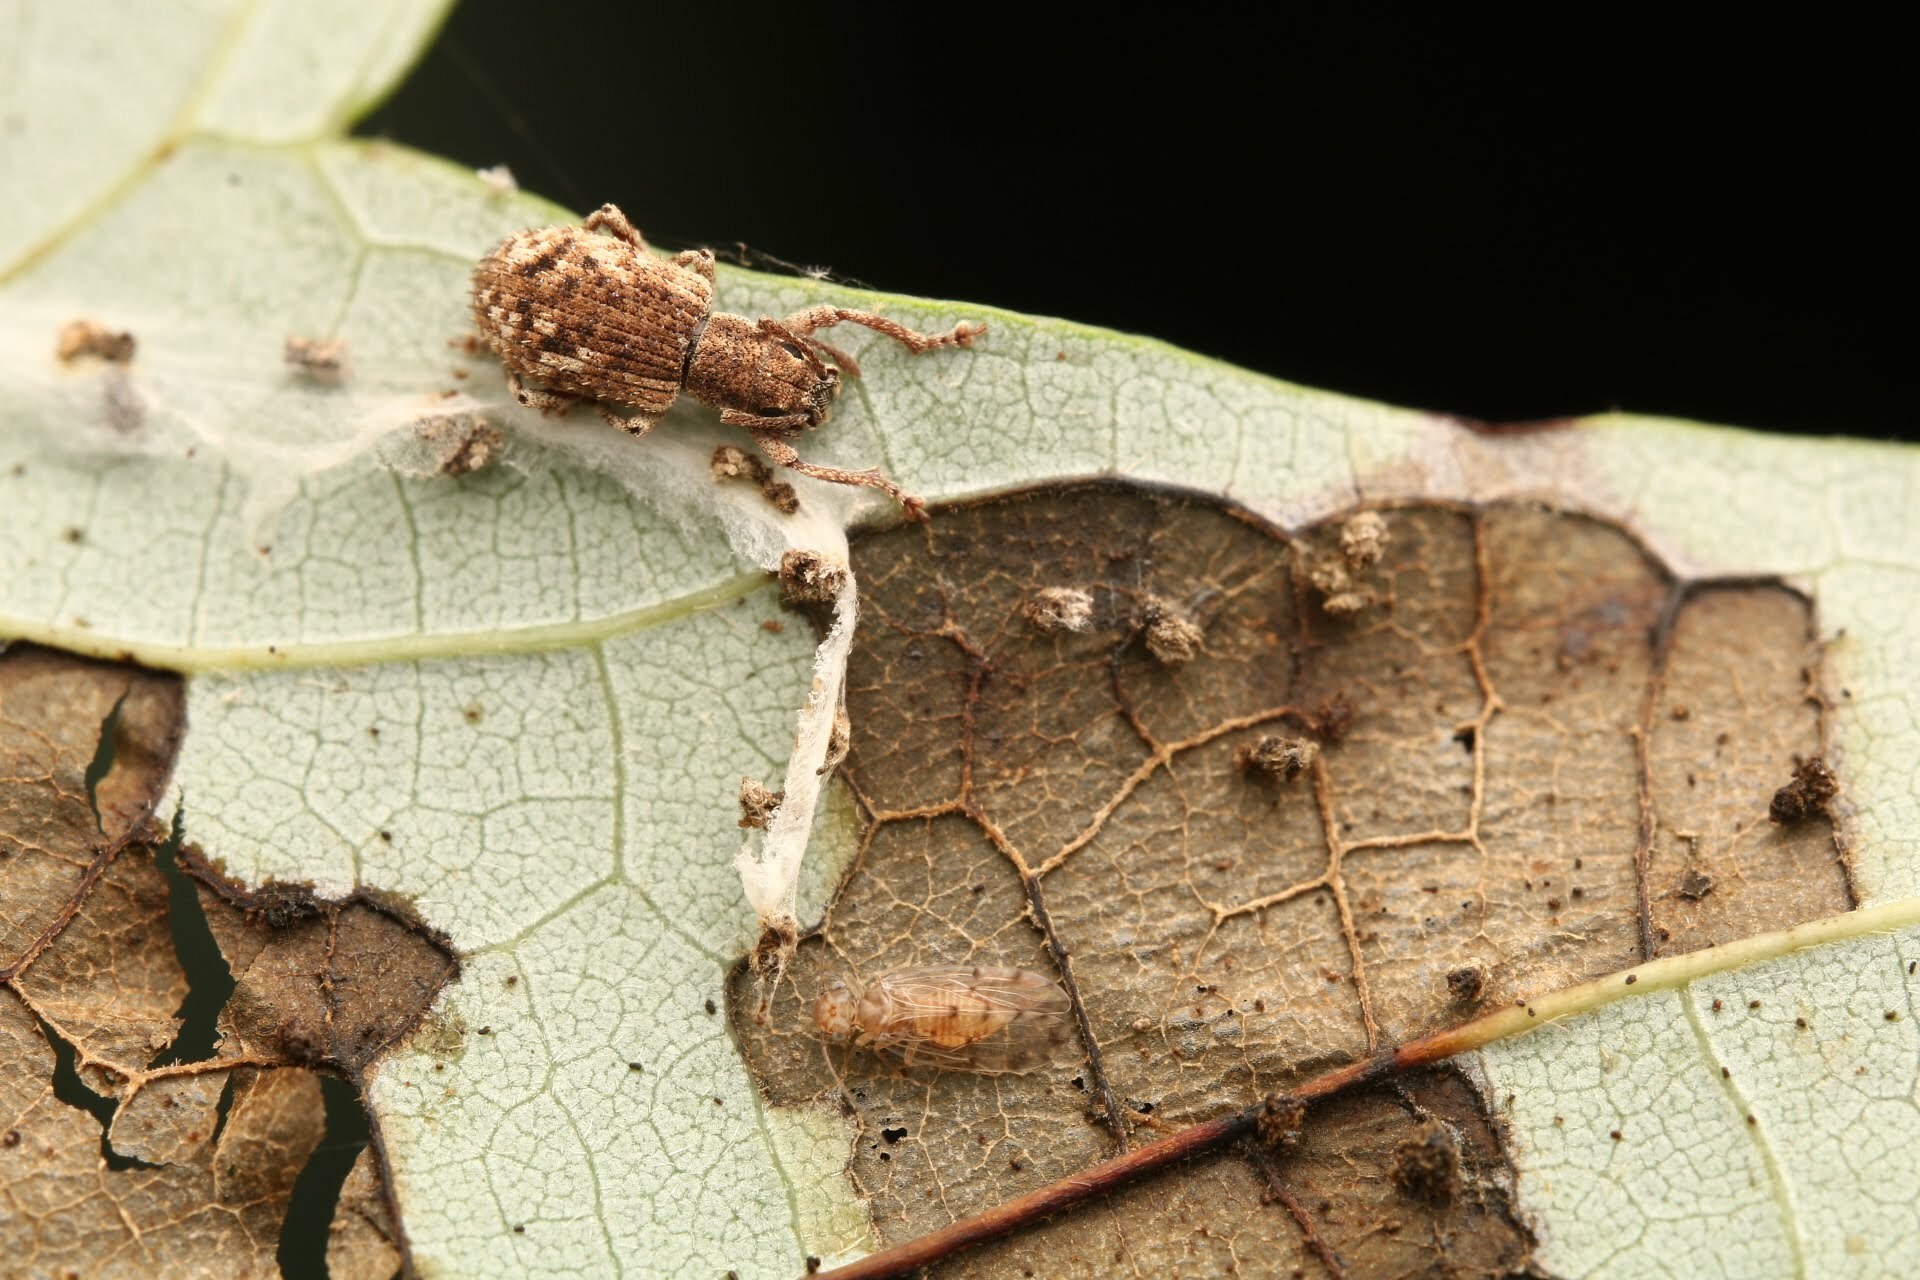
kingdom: Animalia
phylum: Arthropoda
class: Insecta
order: Coleoptera
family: Curculionidae
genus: Pseudoedophrys
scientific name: Pseudoedophrys hilleri
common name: Weevil
